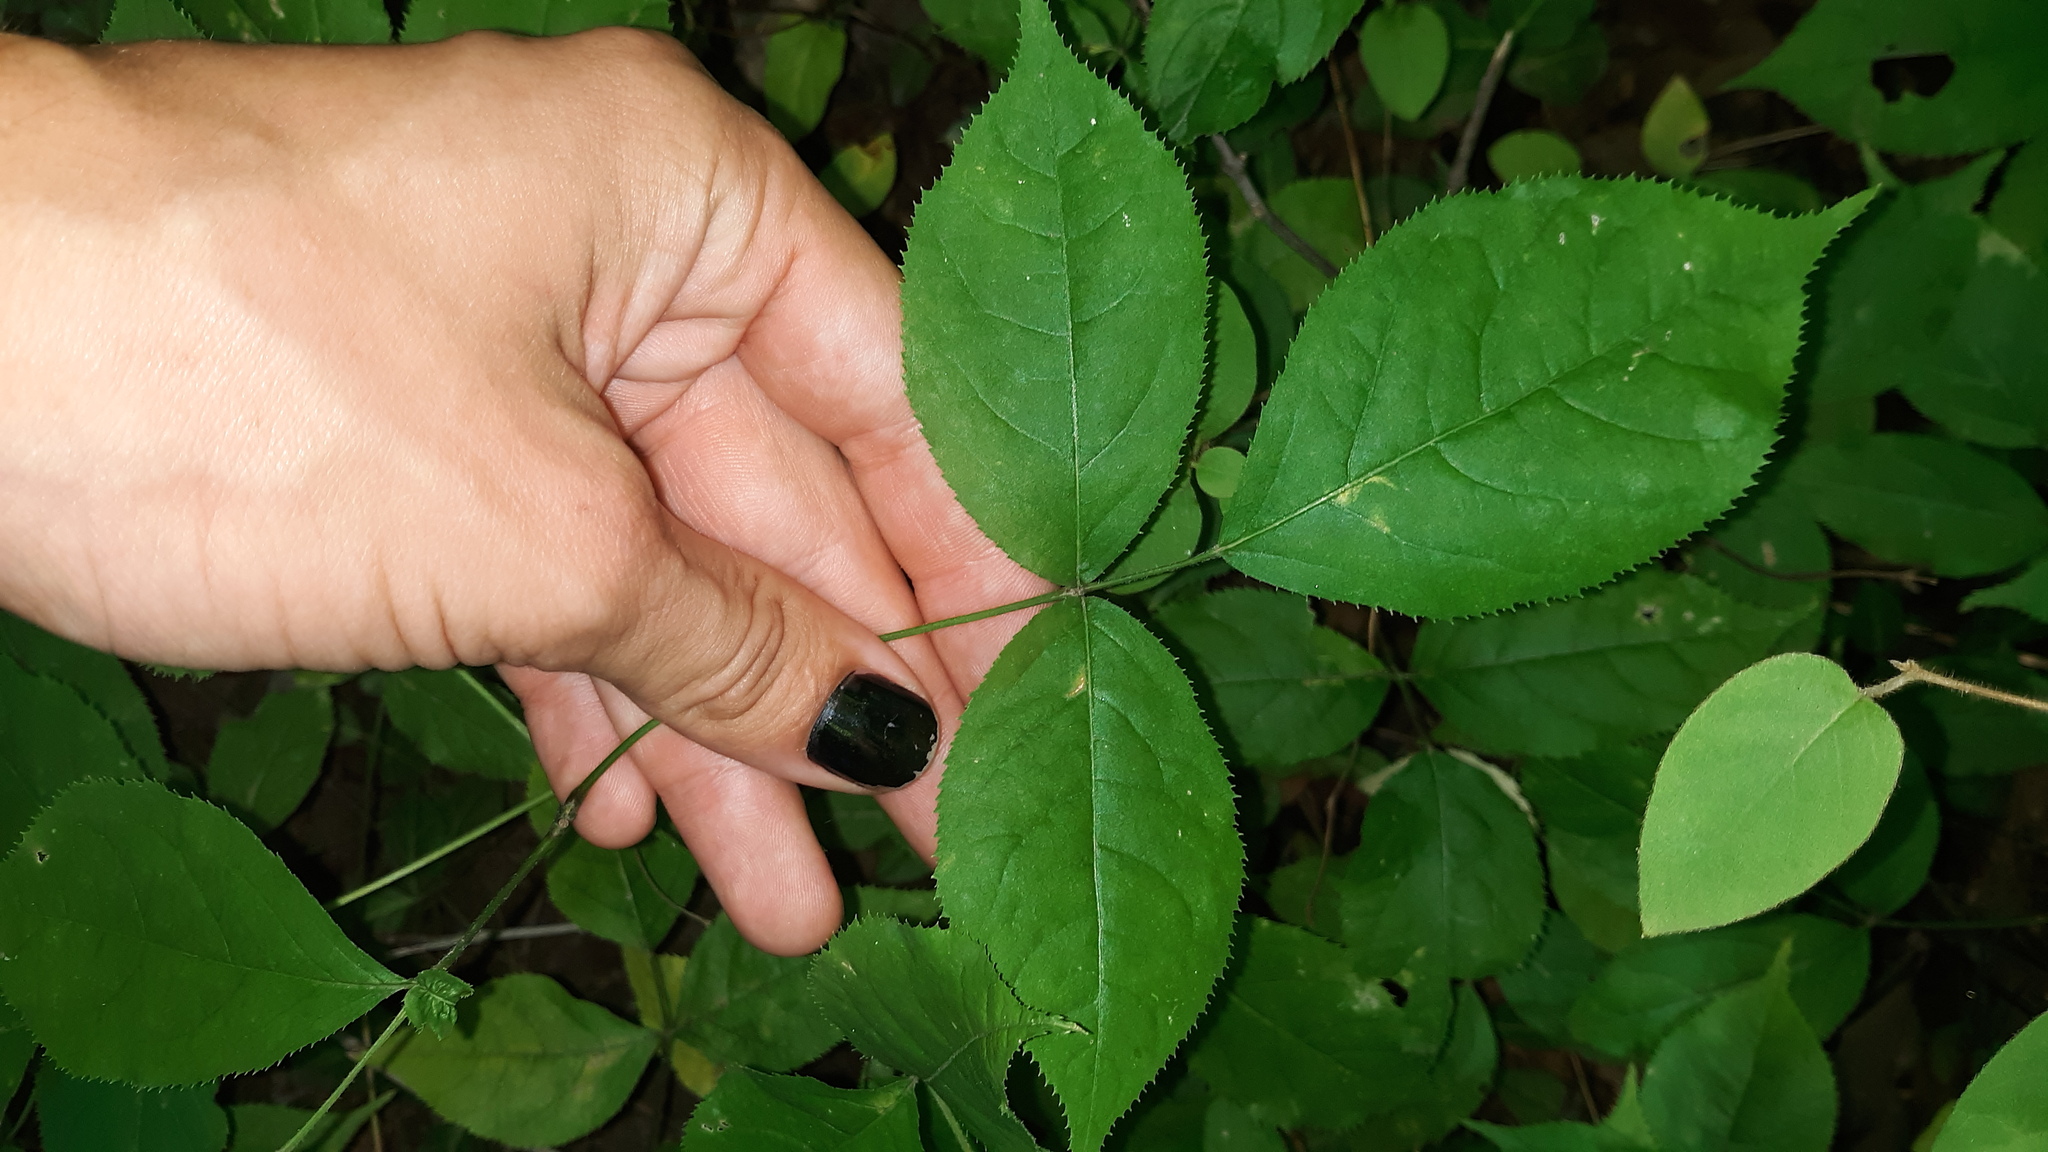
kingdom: Plantae
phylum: Tracheophyta
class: Magnoliopsida
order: Crossosomatales
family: Staphyleaceae
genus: Staphylea
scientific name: Staphylea trifolia
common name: American bladdernut
